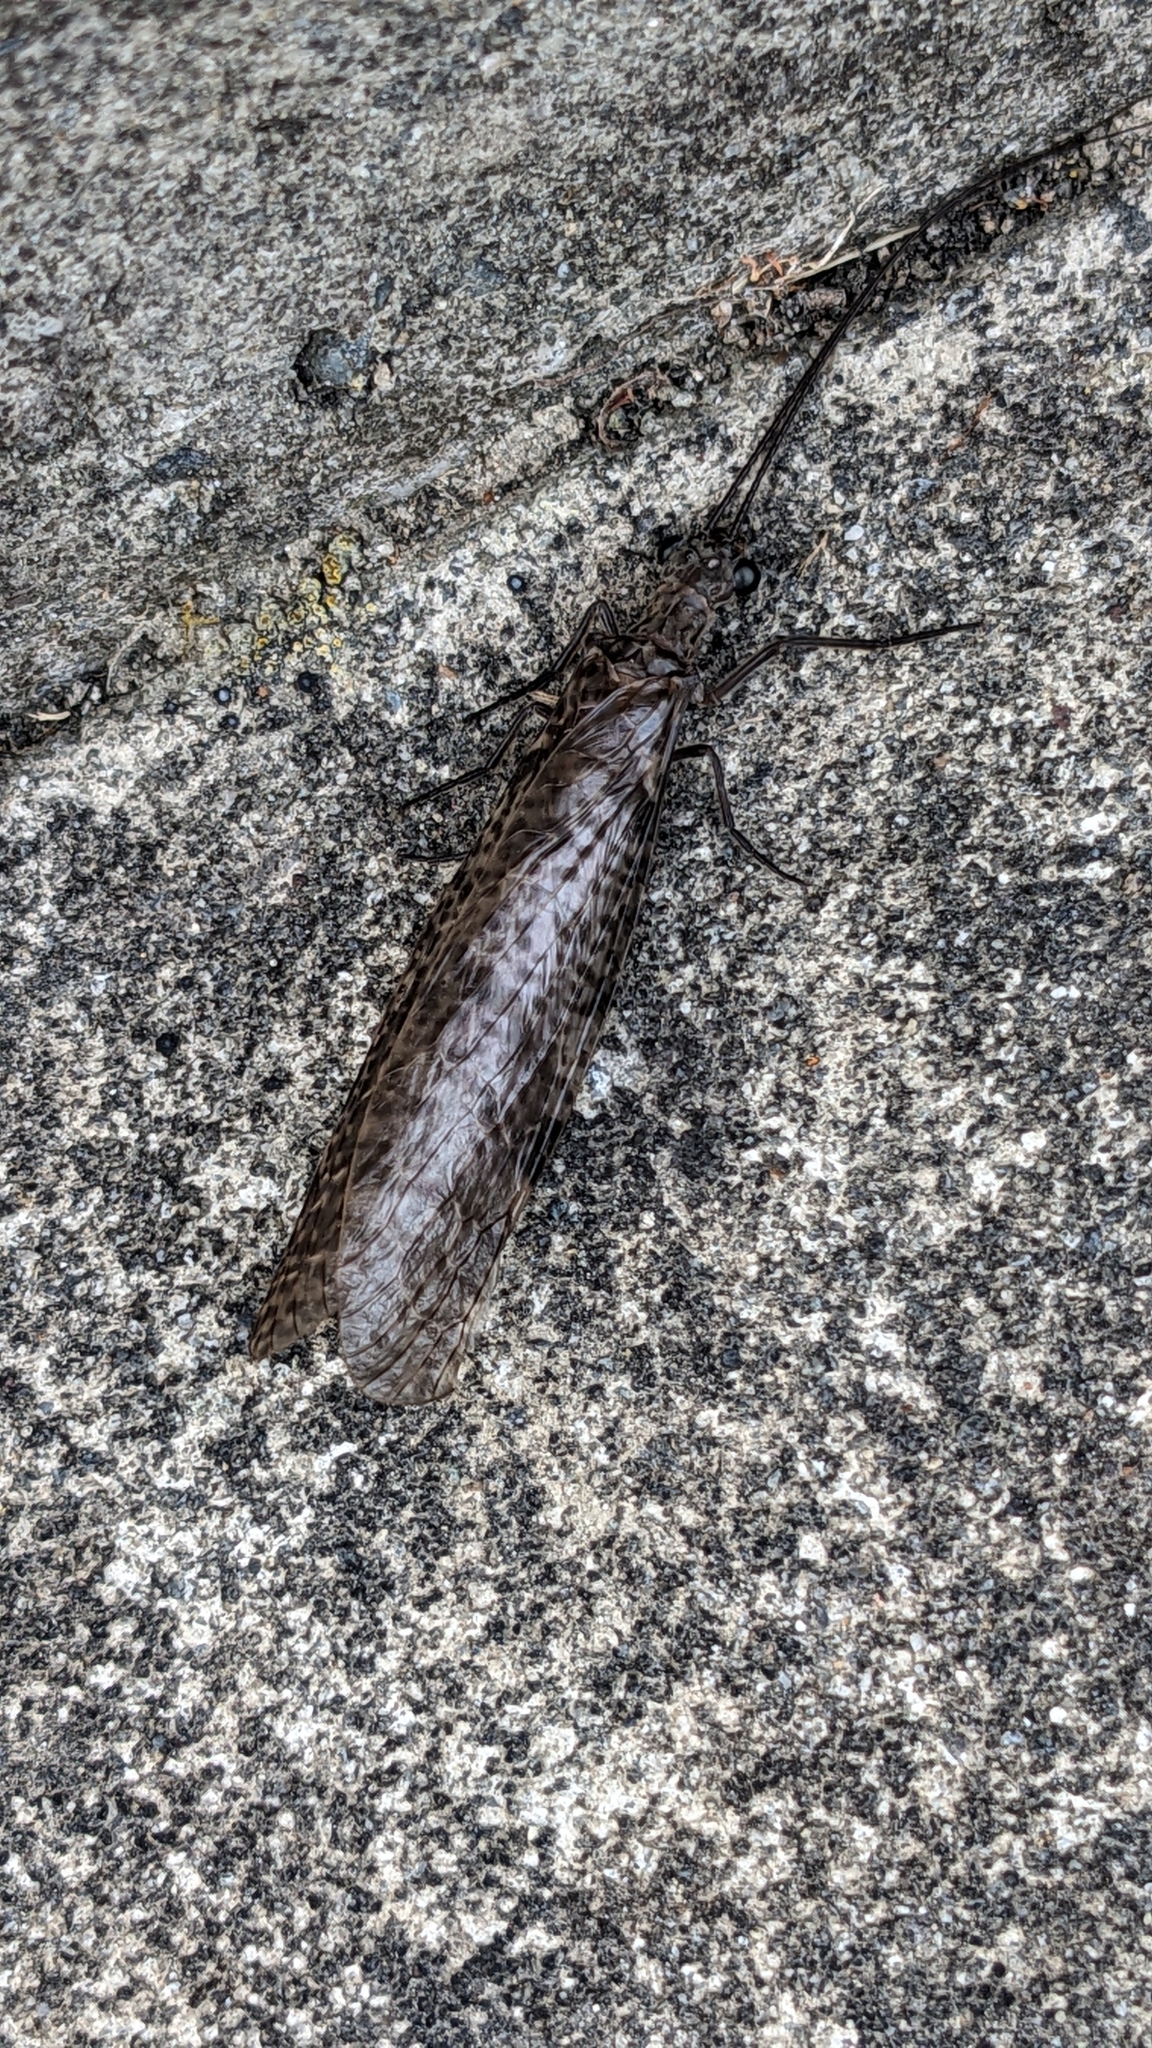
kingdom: Animalia
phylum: Arthropoda
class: Insecta
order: Megaloptera
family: Corydalidae
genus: Archichauliodes
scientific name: Archichauliodes diversus
